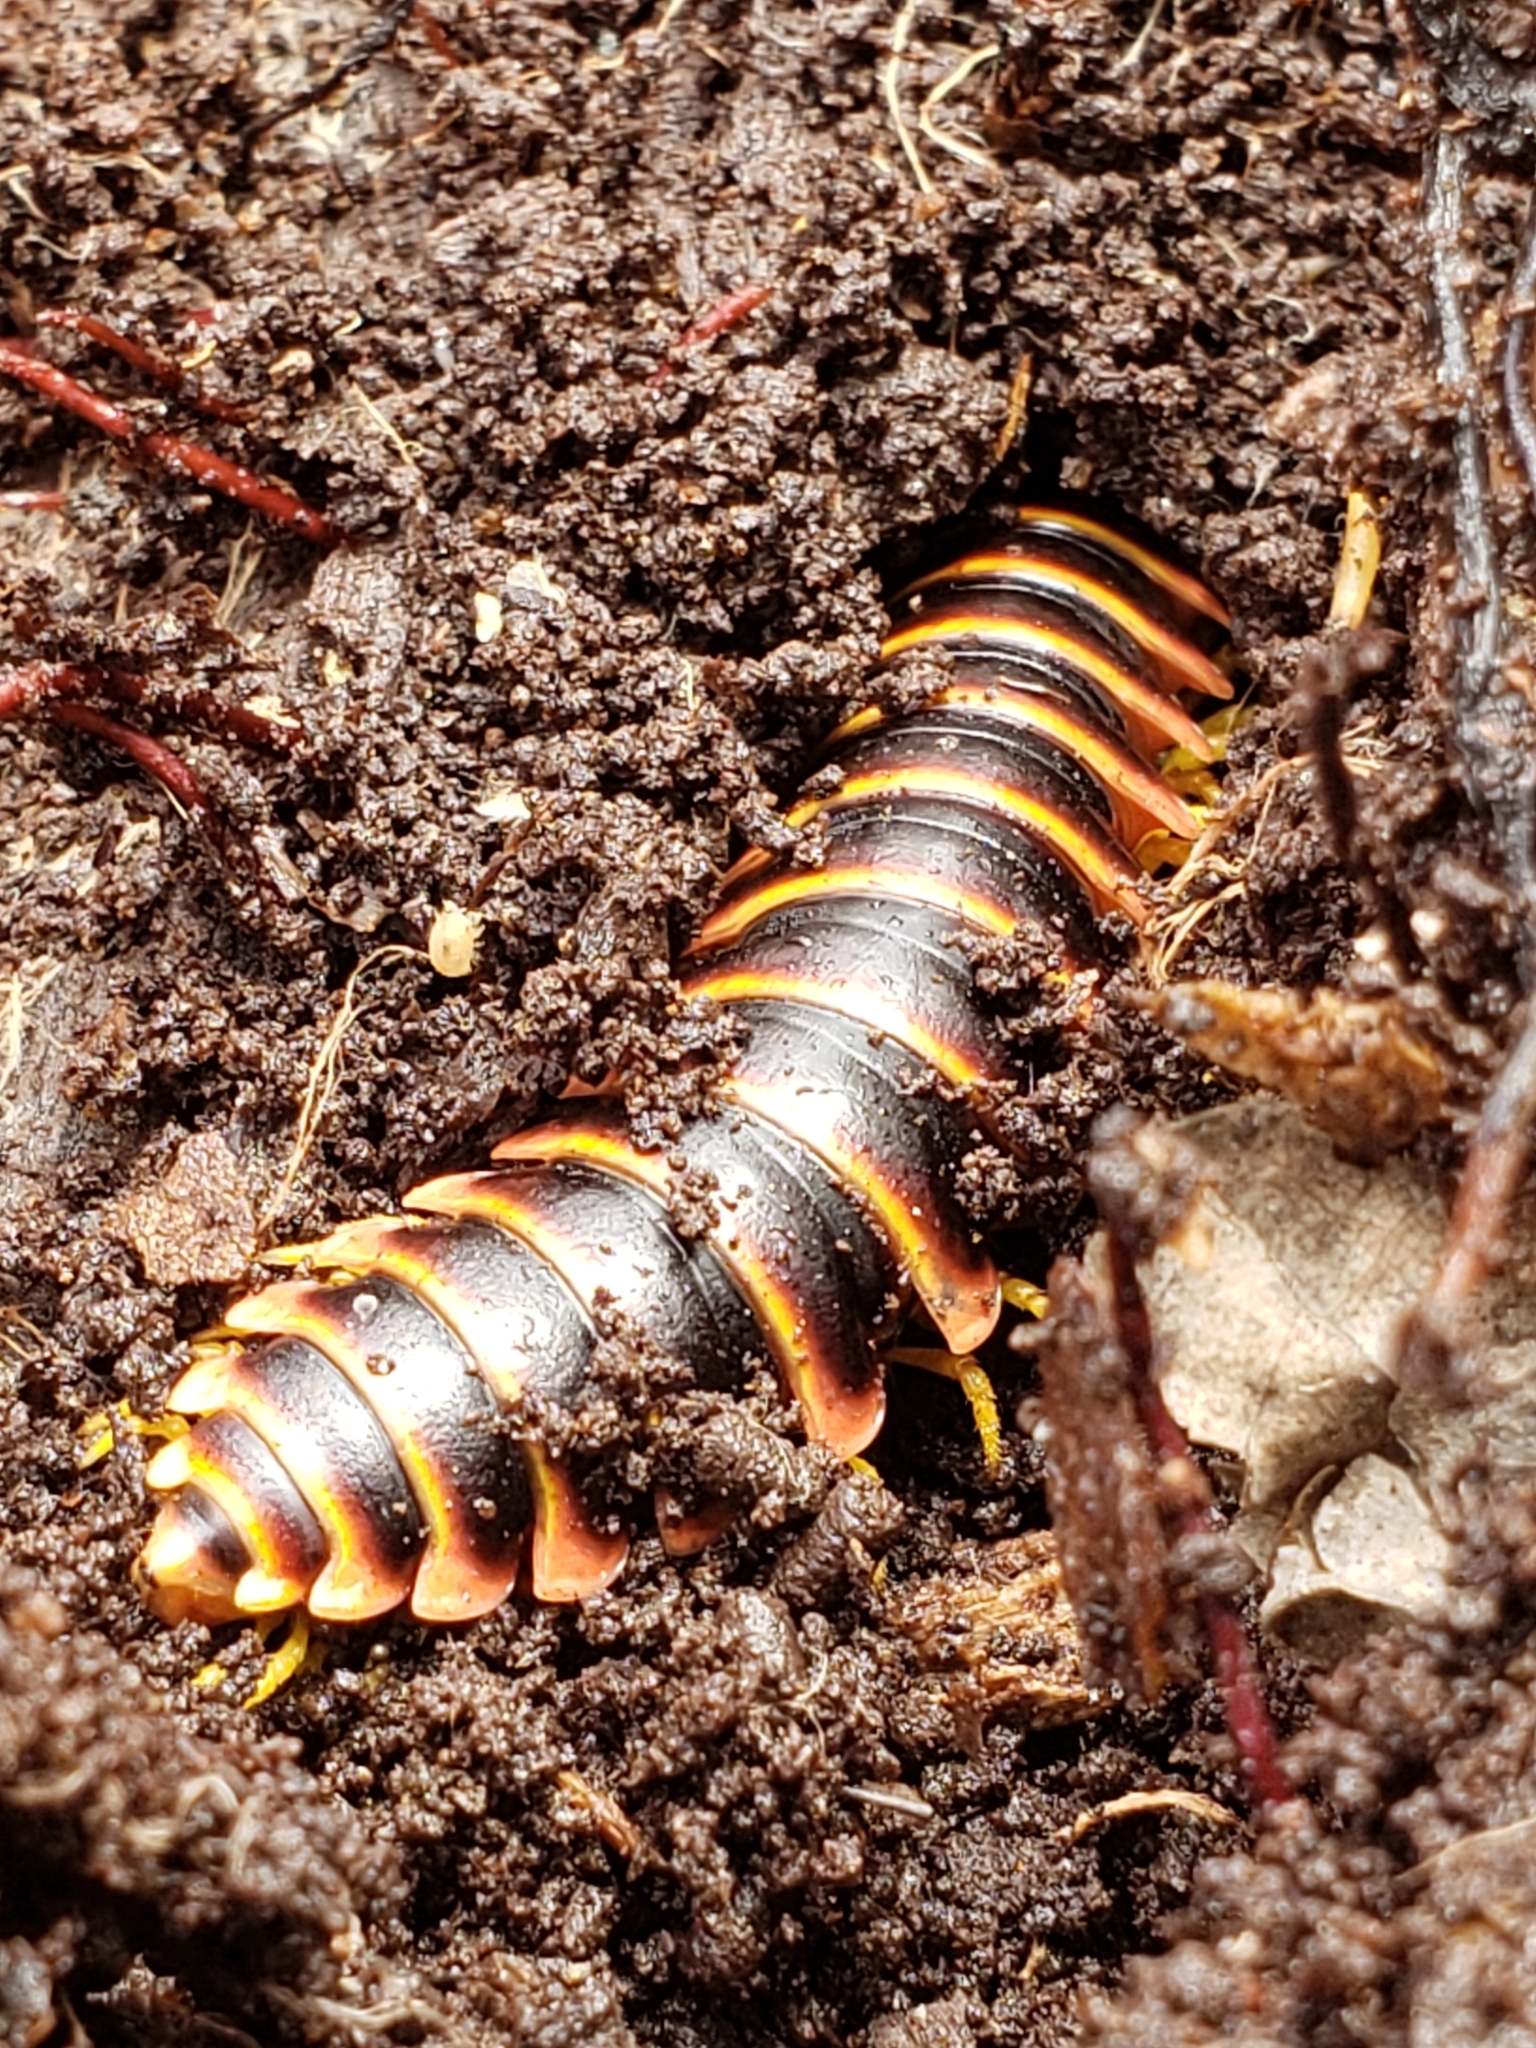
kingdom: Animalia
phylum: Arthropoda
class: Diplopoda
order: Polydesmida
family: Xystodesmidae
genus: Apheloria
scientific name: Apheloria virginiensis
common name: Black-and-gold flat millipede
